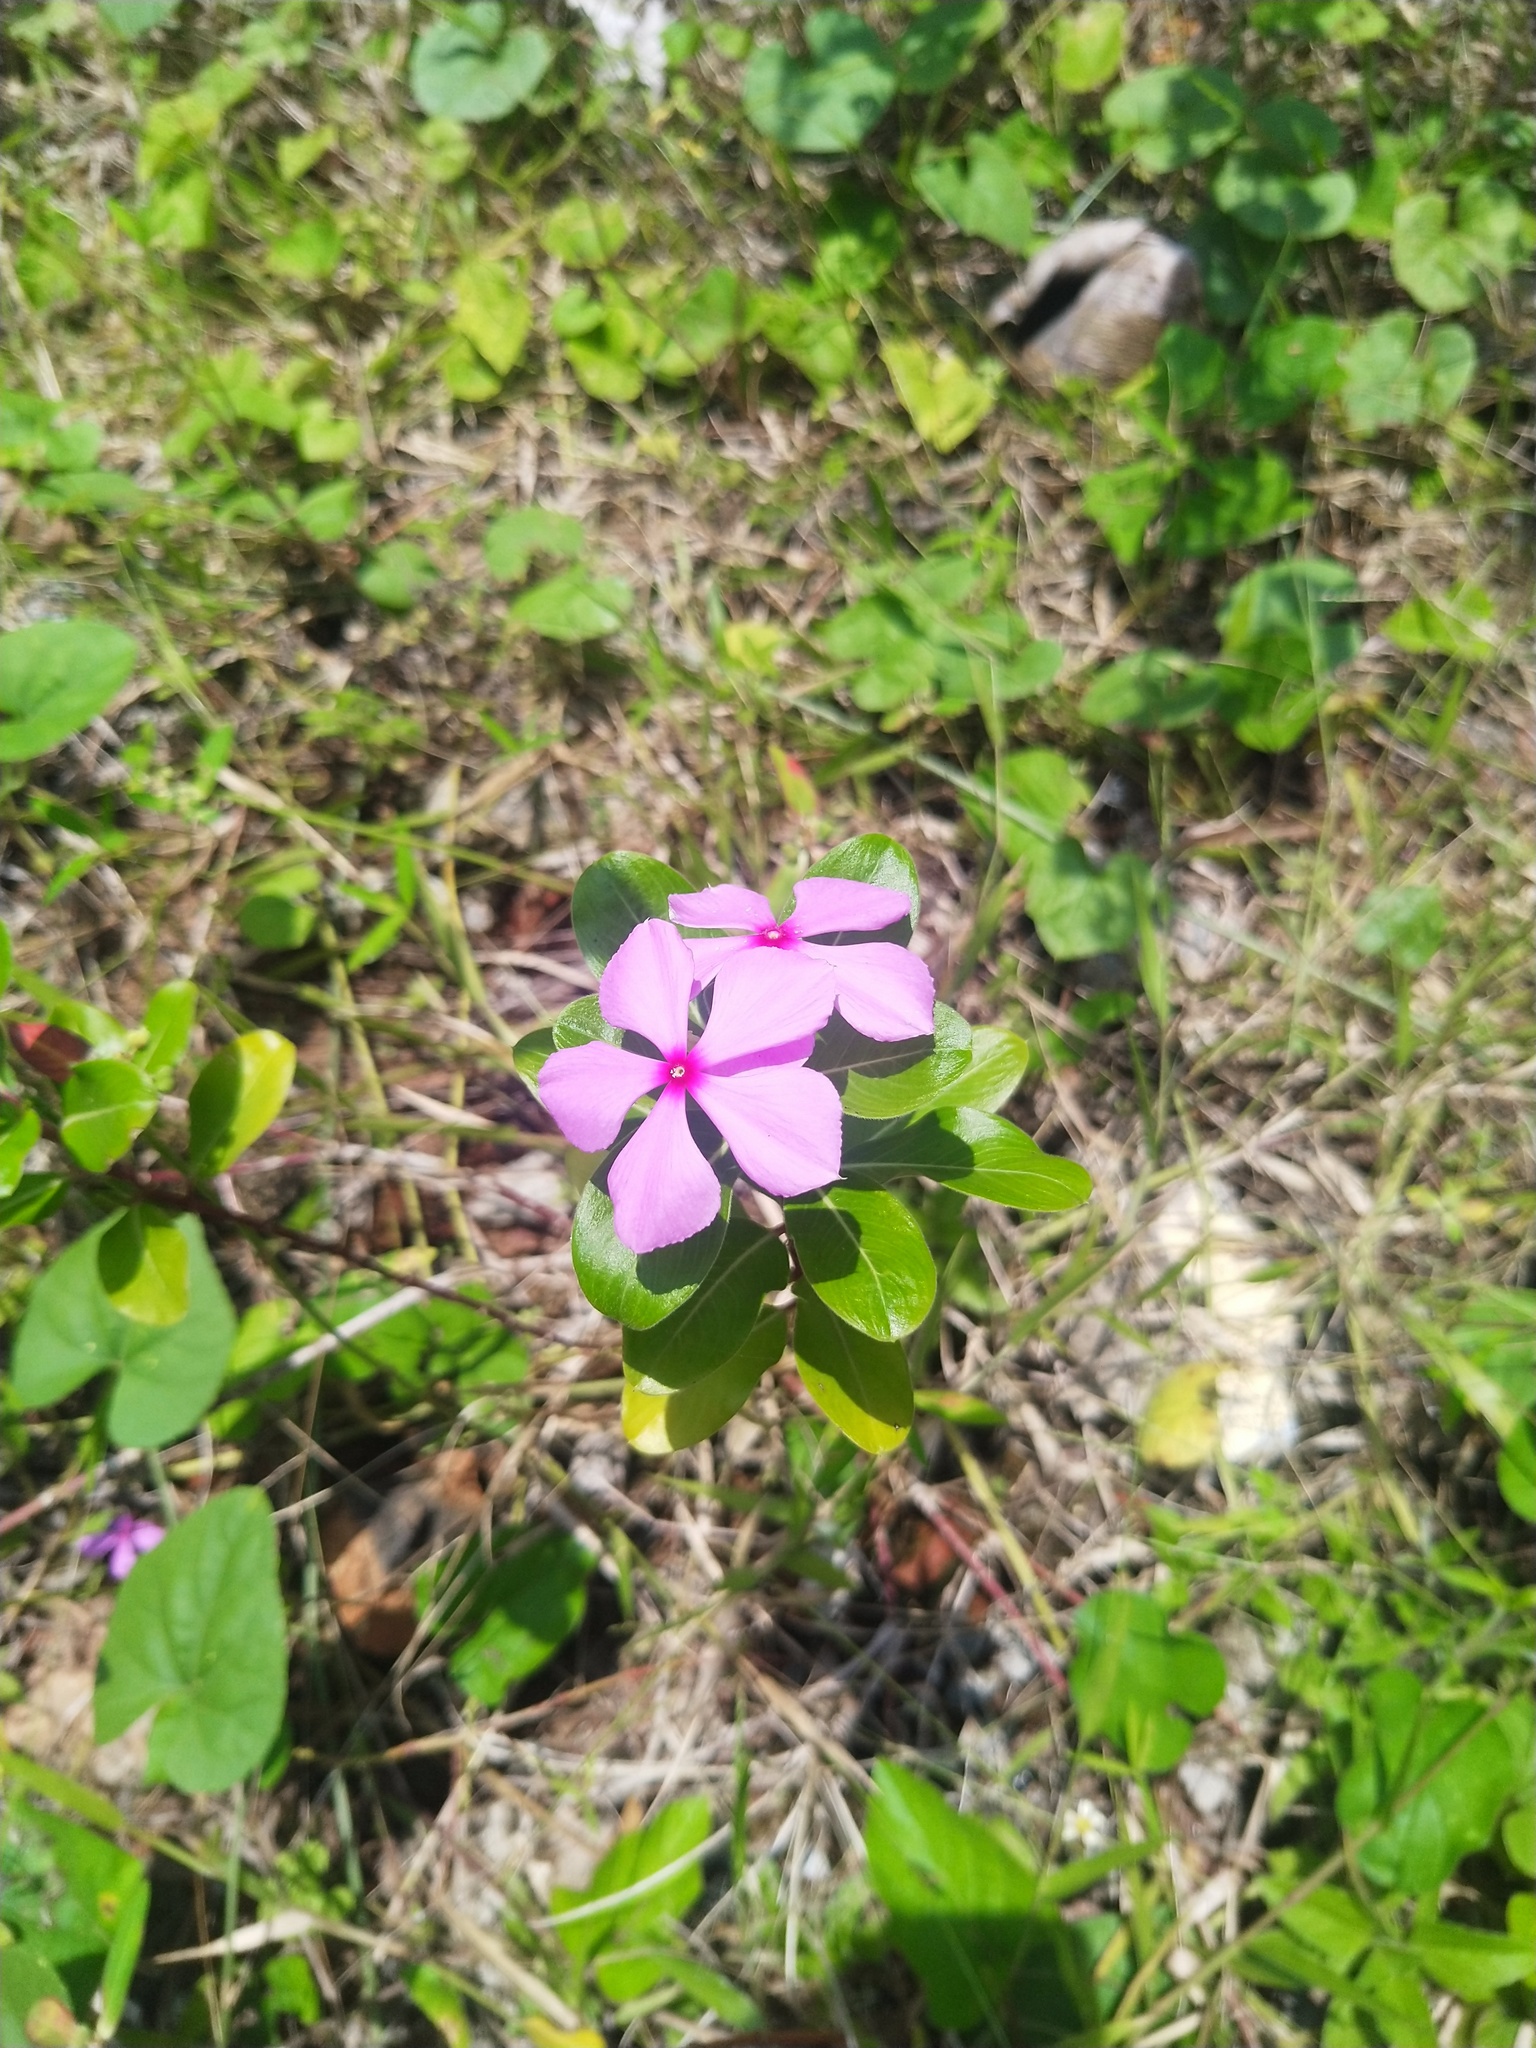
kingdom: Plantae
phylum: Tracheophyta
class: Magnoliopsida
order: Gentianales
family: Apocynaceae
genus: Catharanthus
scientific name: Catharanthus roseus
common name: Madagascar periwinkle
